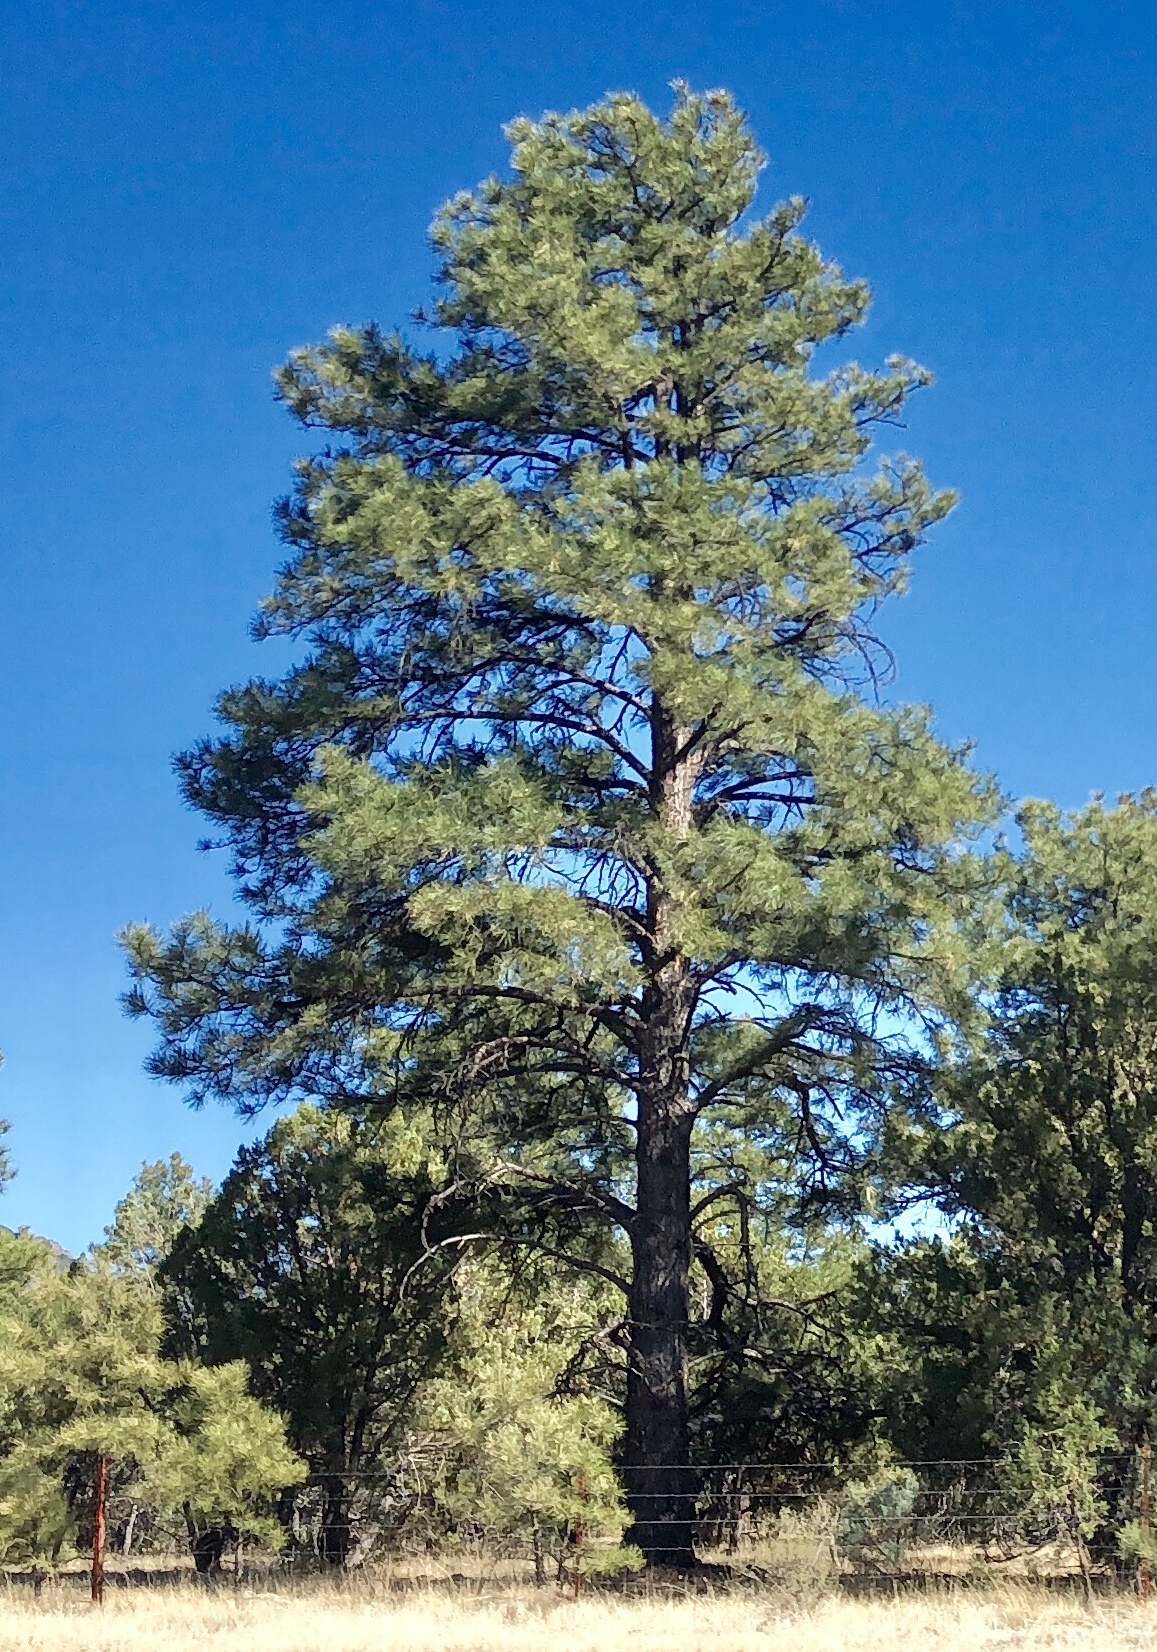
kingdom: Plantae
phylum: Tracheophyta
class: Pinopsida
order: Pinales
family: Pinaceae
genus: Pinus
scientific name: Pinus ponderosa
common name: Western yellow-pine
